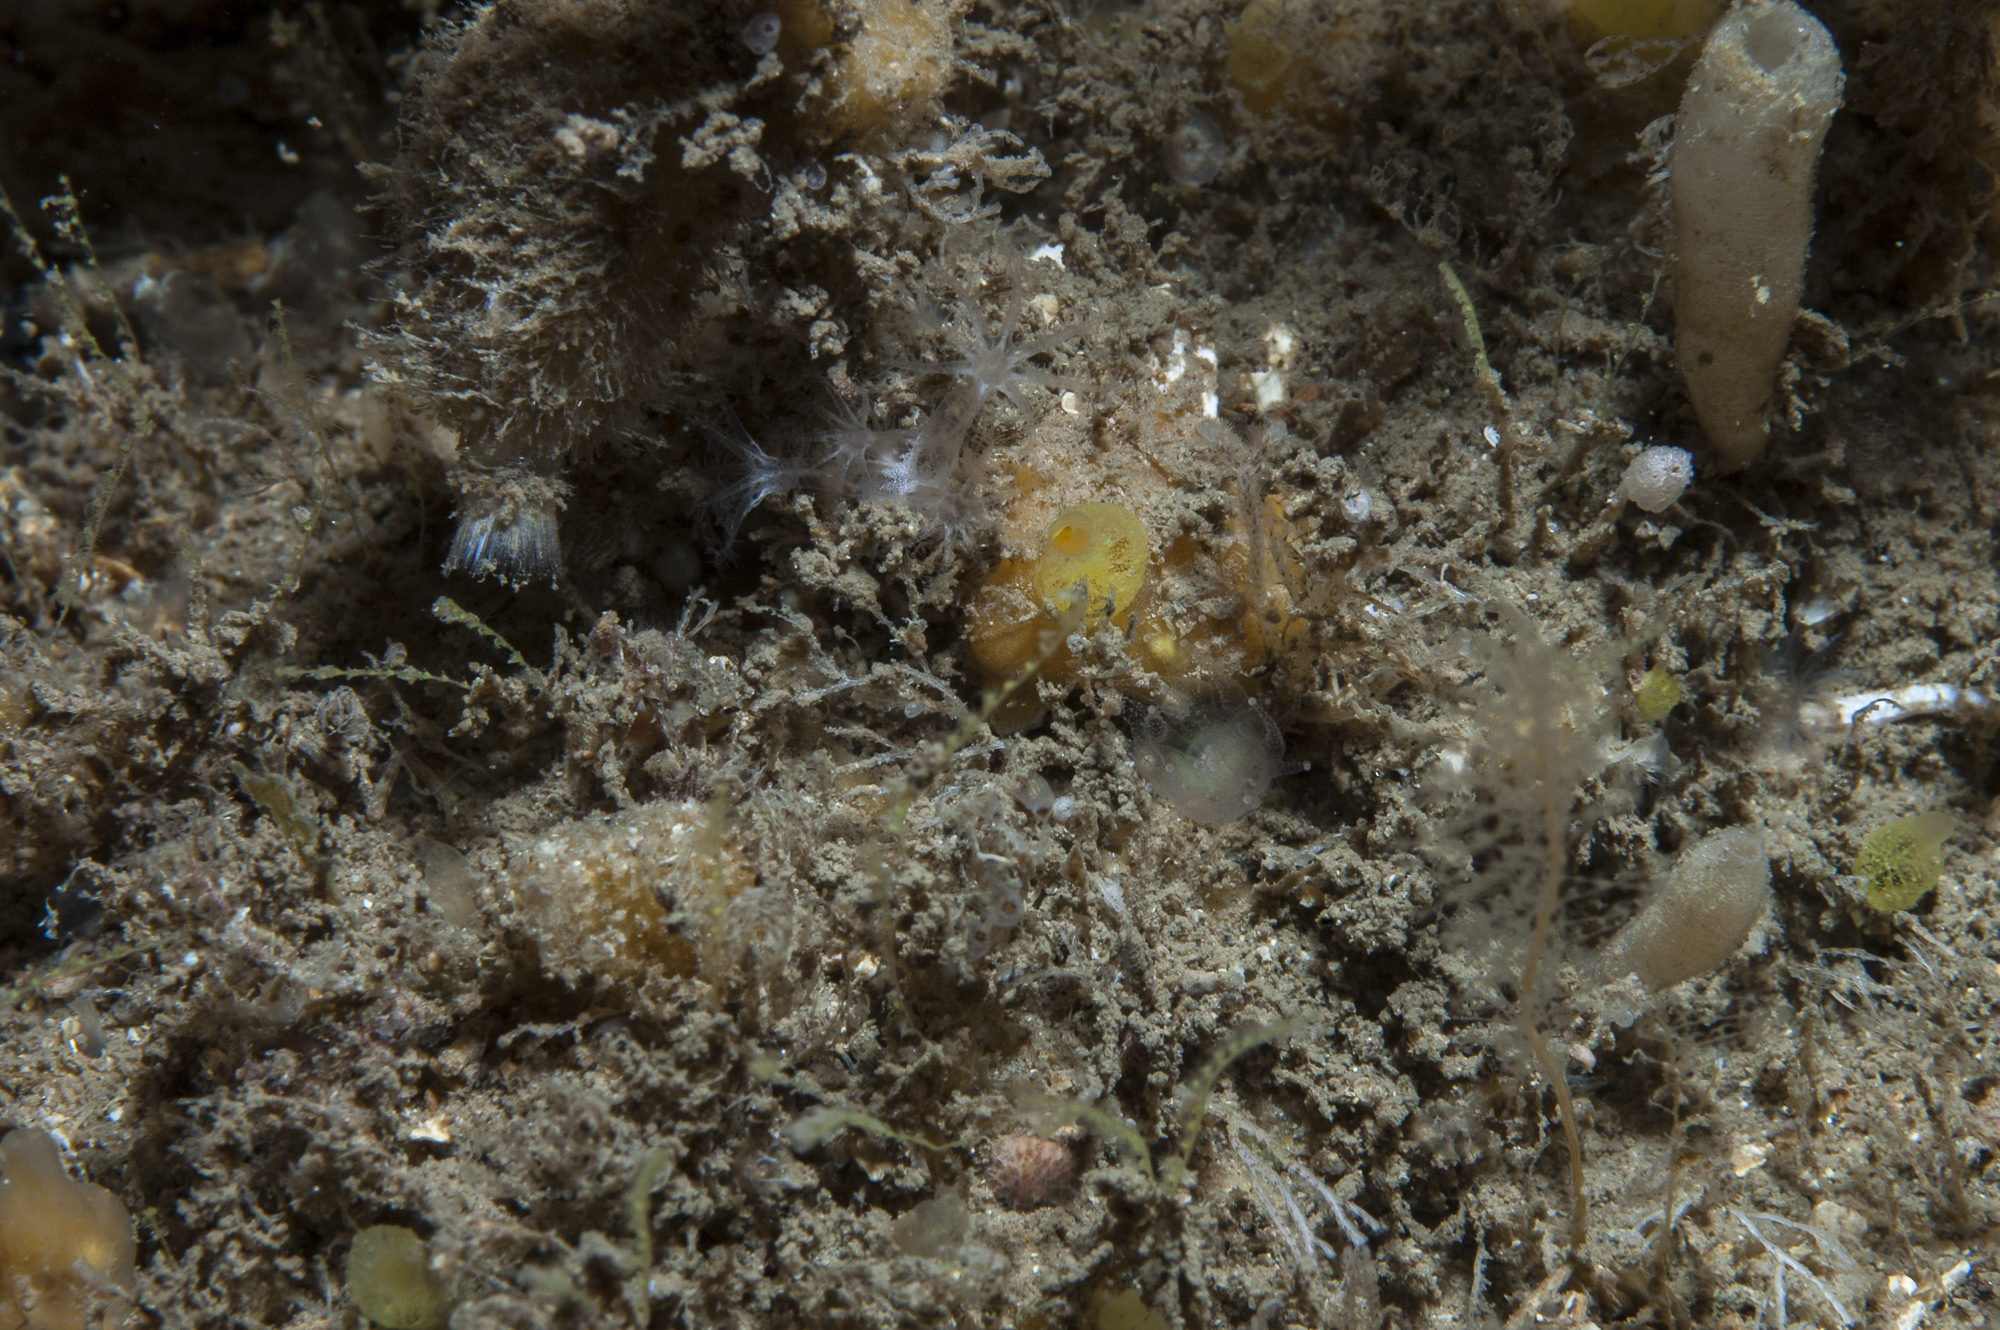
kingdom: Animalia
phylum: Porifera
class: Demospongiae
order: Poecilosclerida
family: Hymedesmiidae
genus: Hymedesmia
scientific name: Hymedesmia rathlinia
